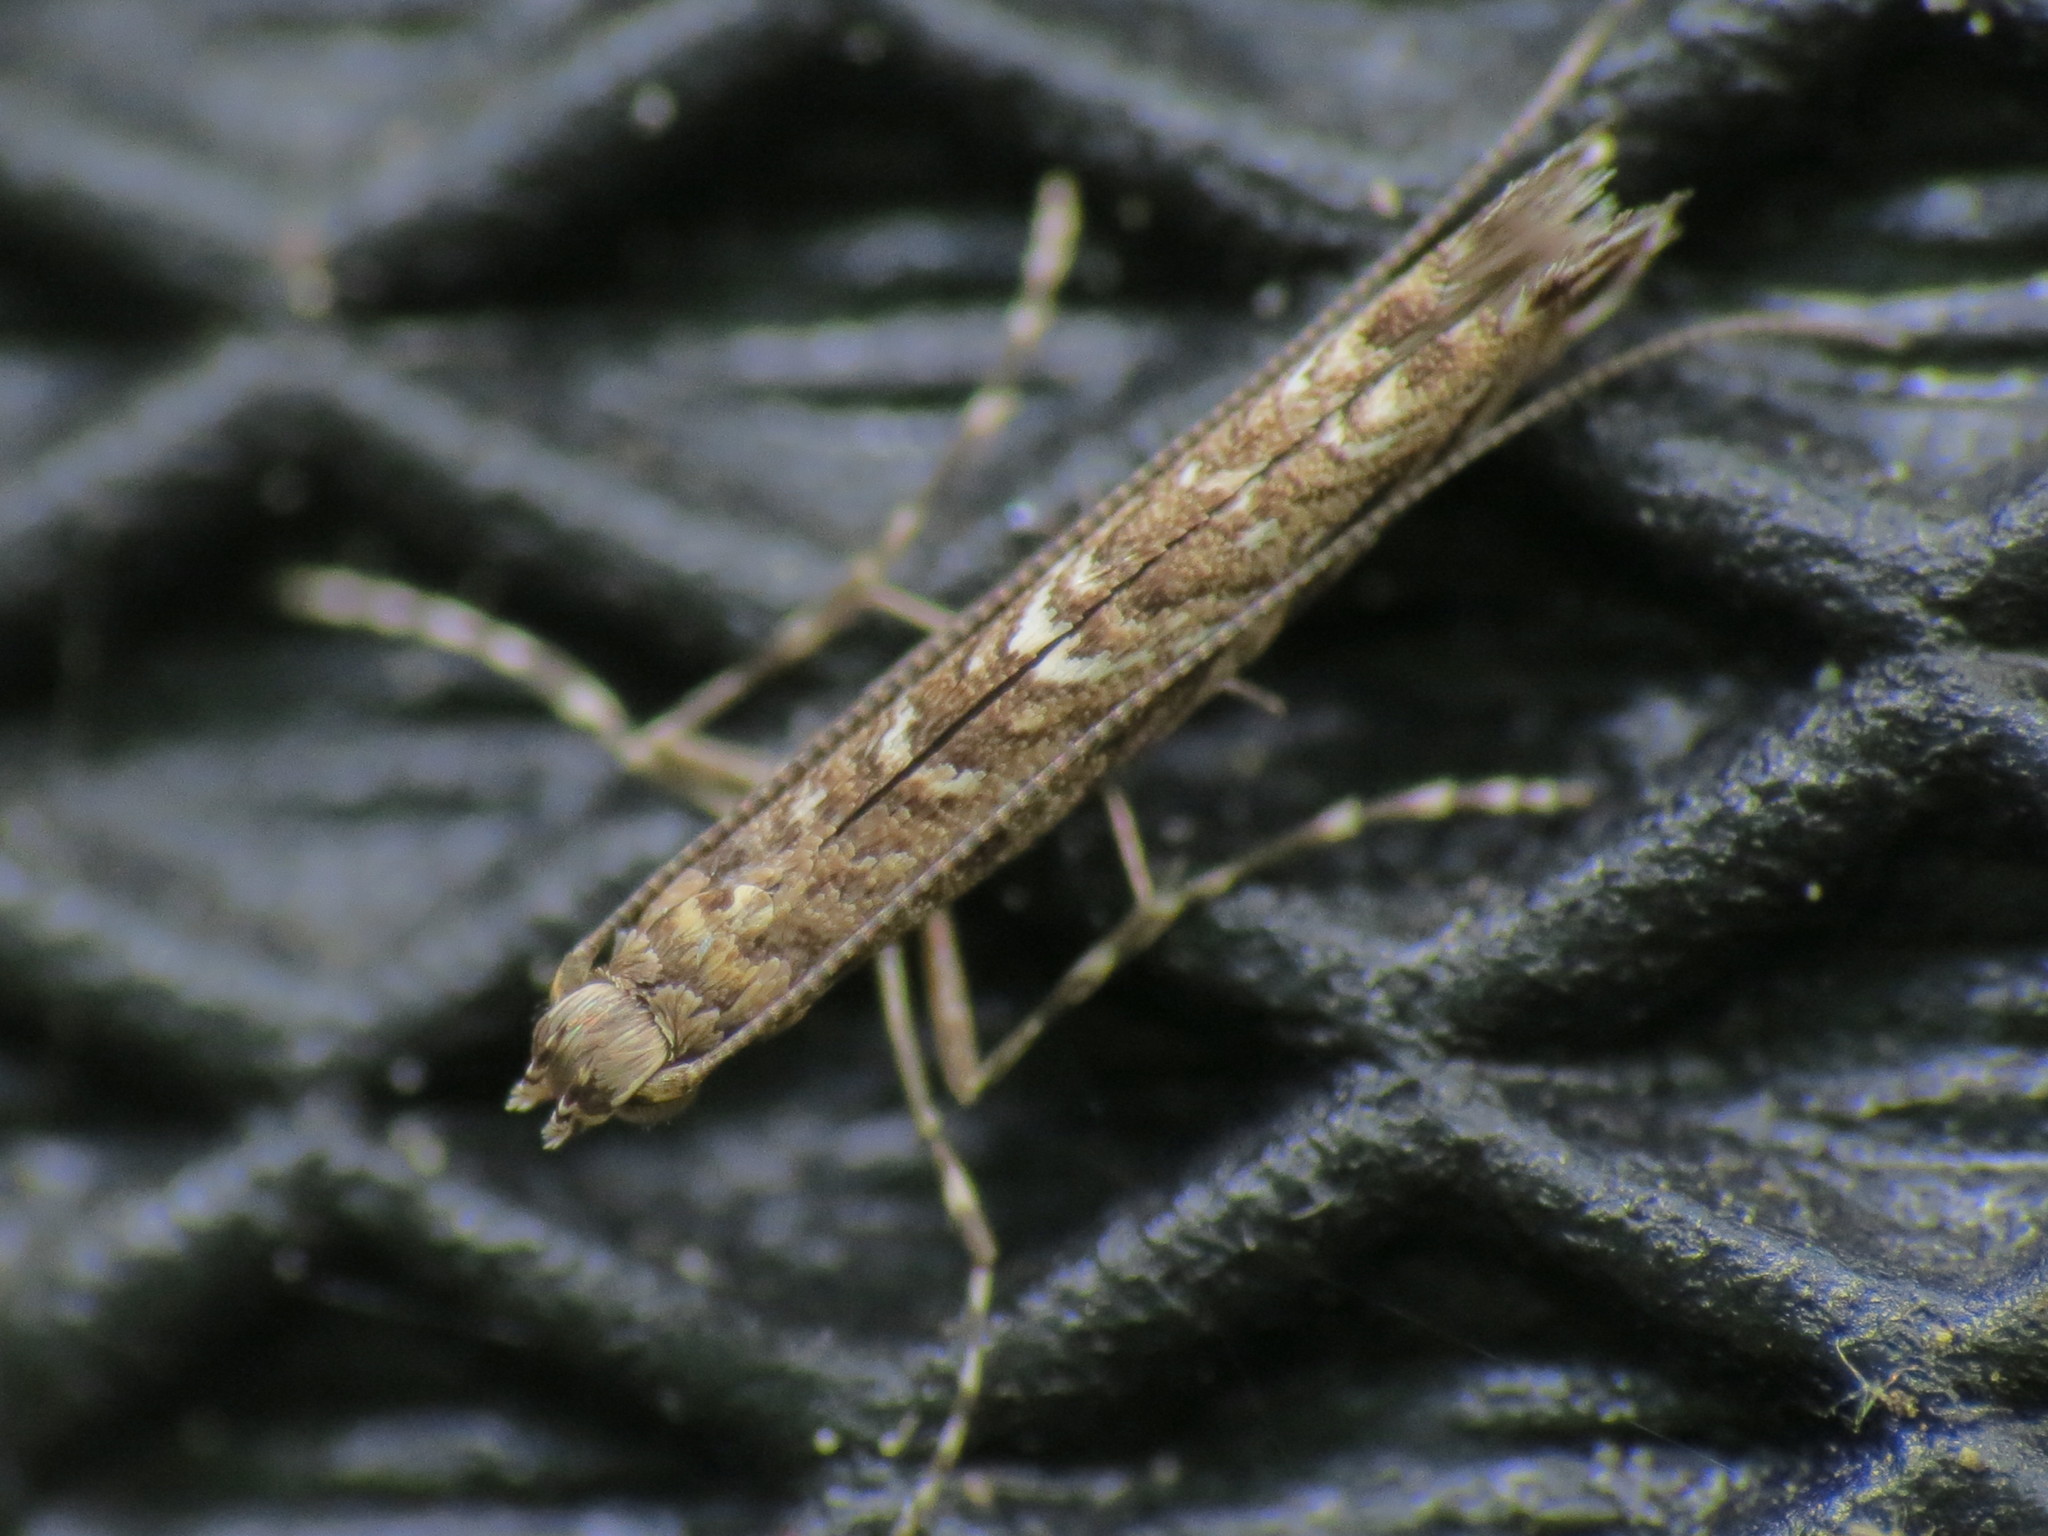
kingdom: Animalia
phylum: Arthropoda
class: Insecta
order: Lepidoptera
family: Gracillariidae
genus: Neurobathra
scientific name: Neurobathra strigifinitella
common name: Finite-channeled leafminer moth
